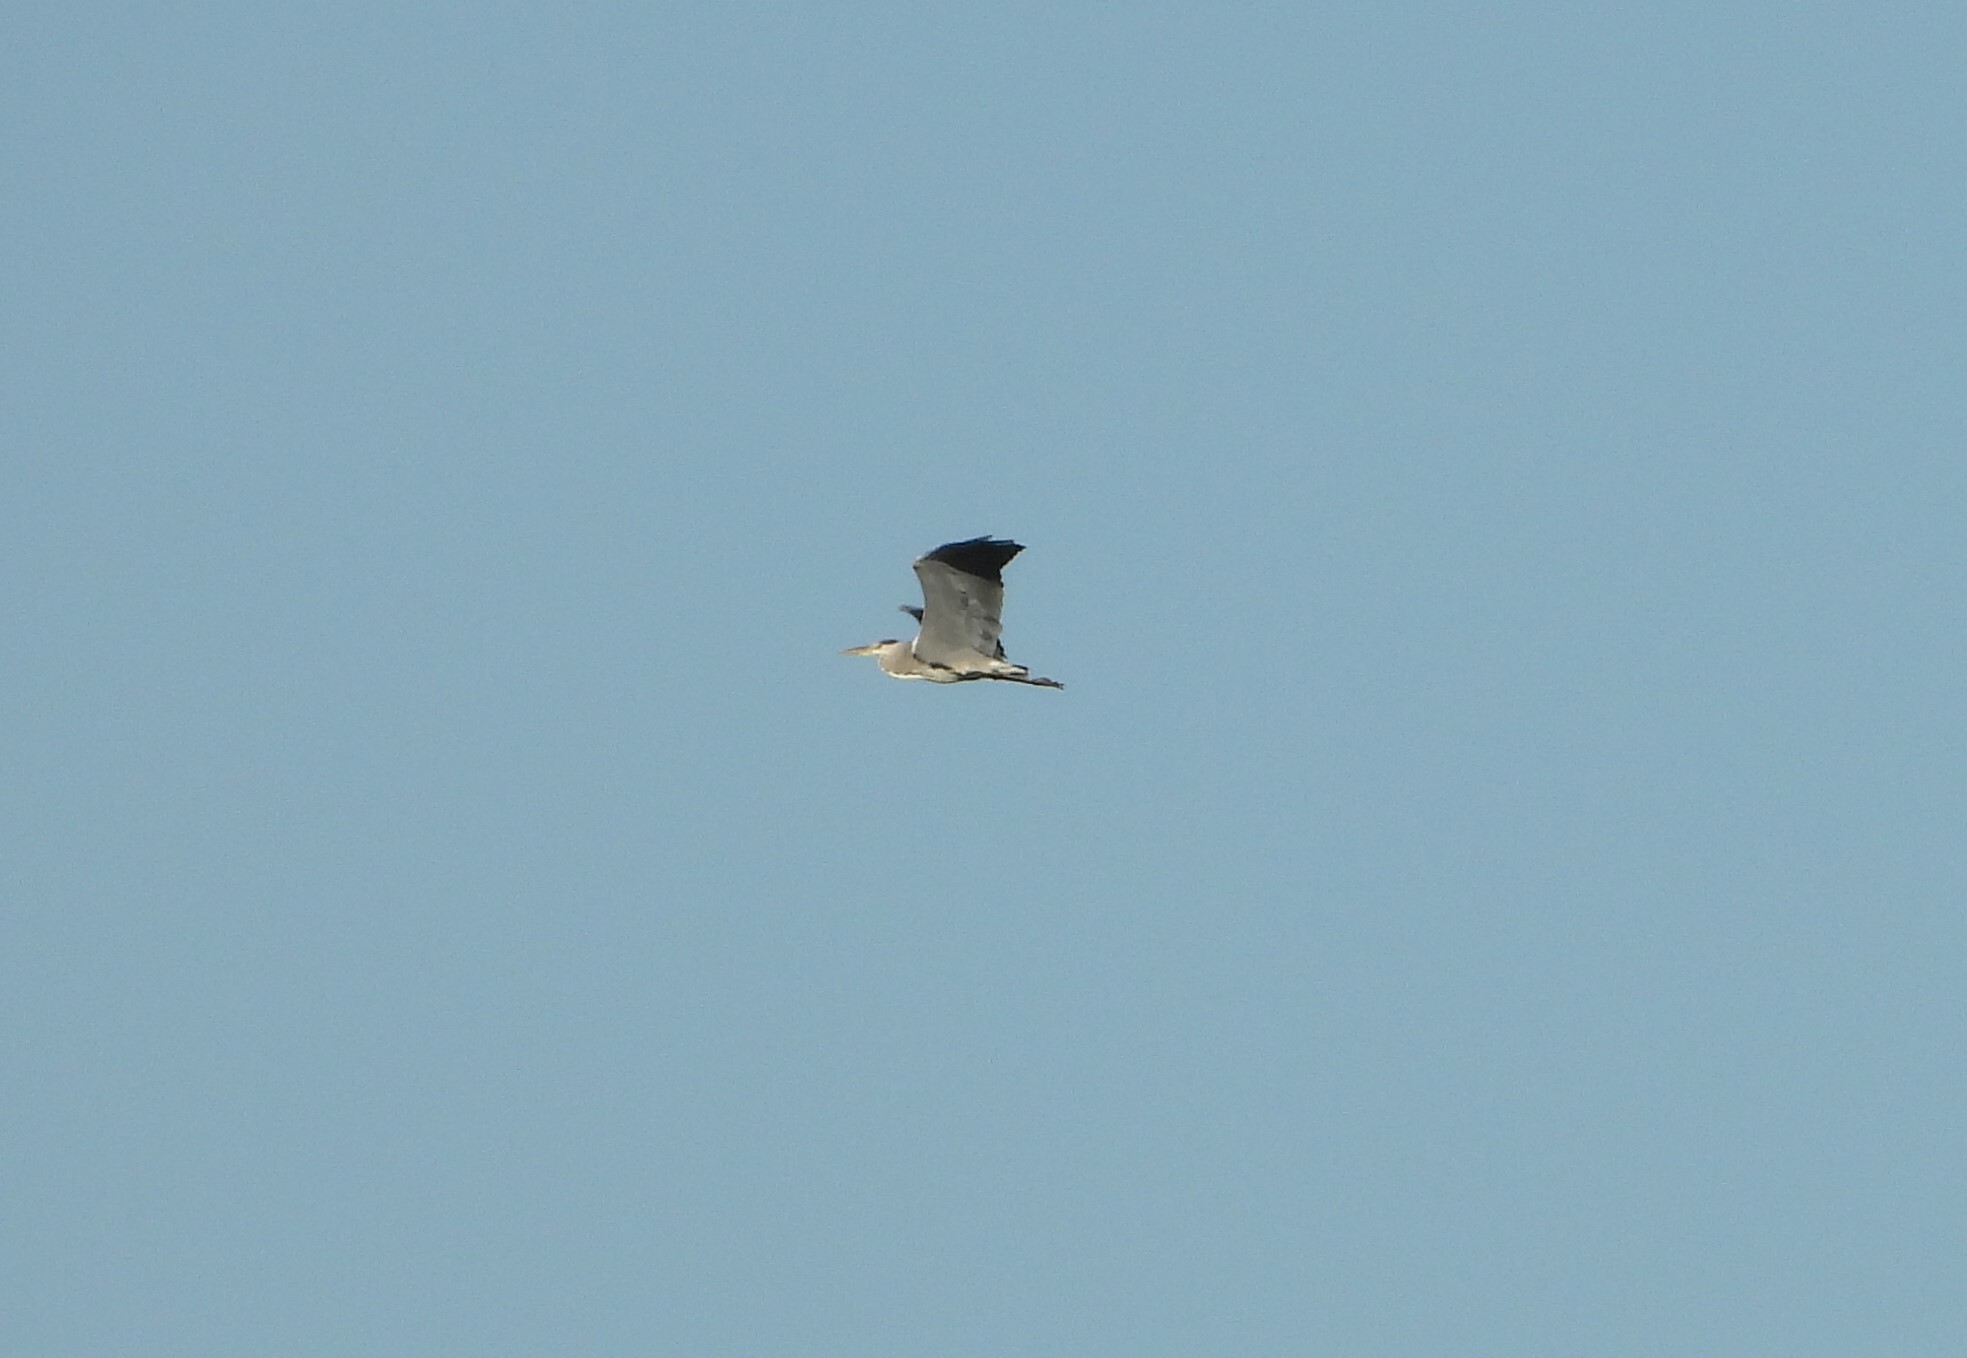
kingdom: Animalia
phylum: Chordata
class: Aves
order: Pelecaniformes
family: Ardeidae
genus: Ardea
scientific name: Ardea cinerea
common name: Grey heron
